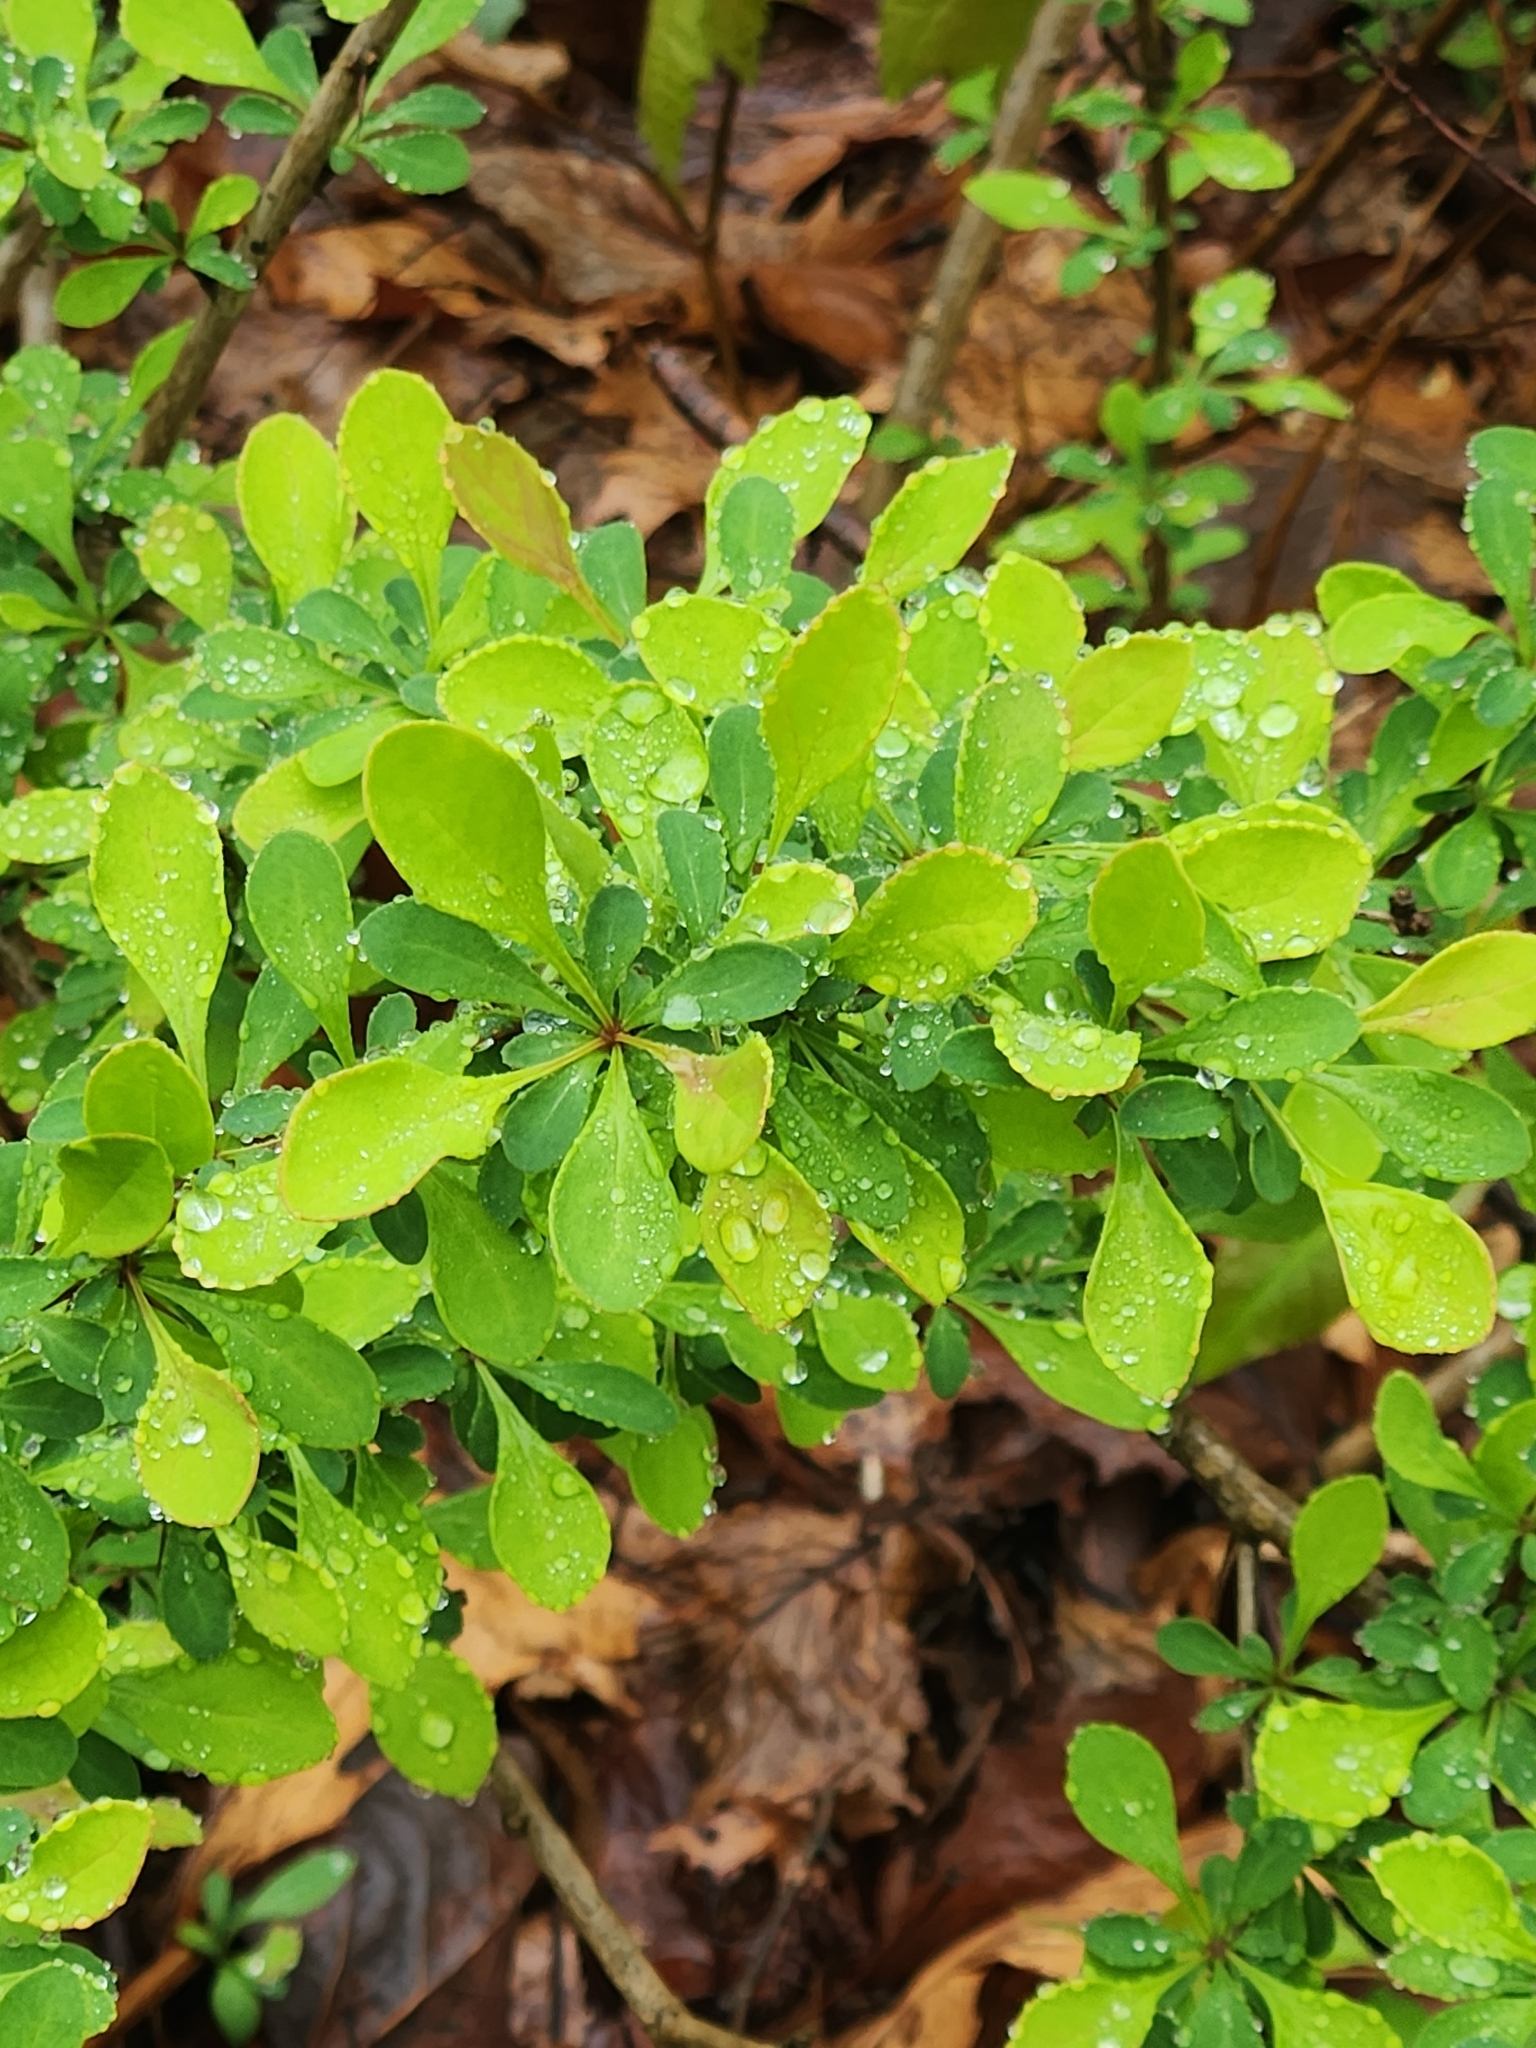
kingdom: Plantae
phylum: Tracheophyta
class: Magnoliopsida
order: Ranunculales
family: Berberidaceae
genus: Berberis
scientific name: Berberis thunbergii
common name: Japanese barberry
